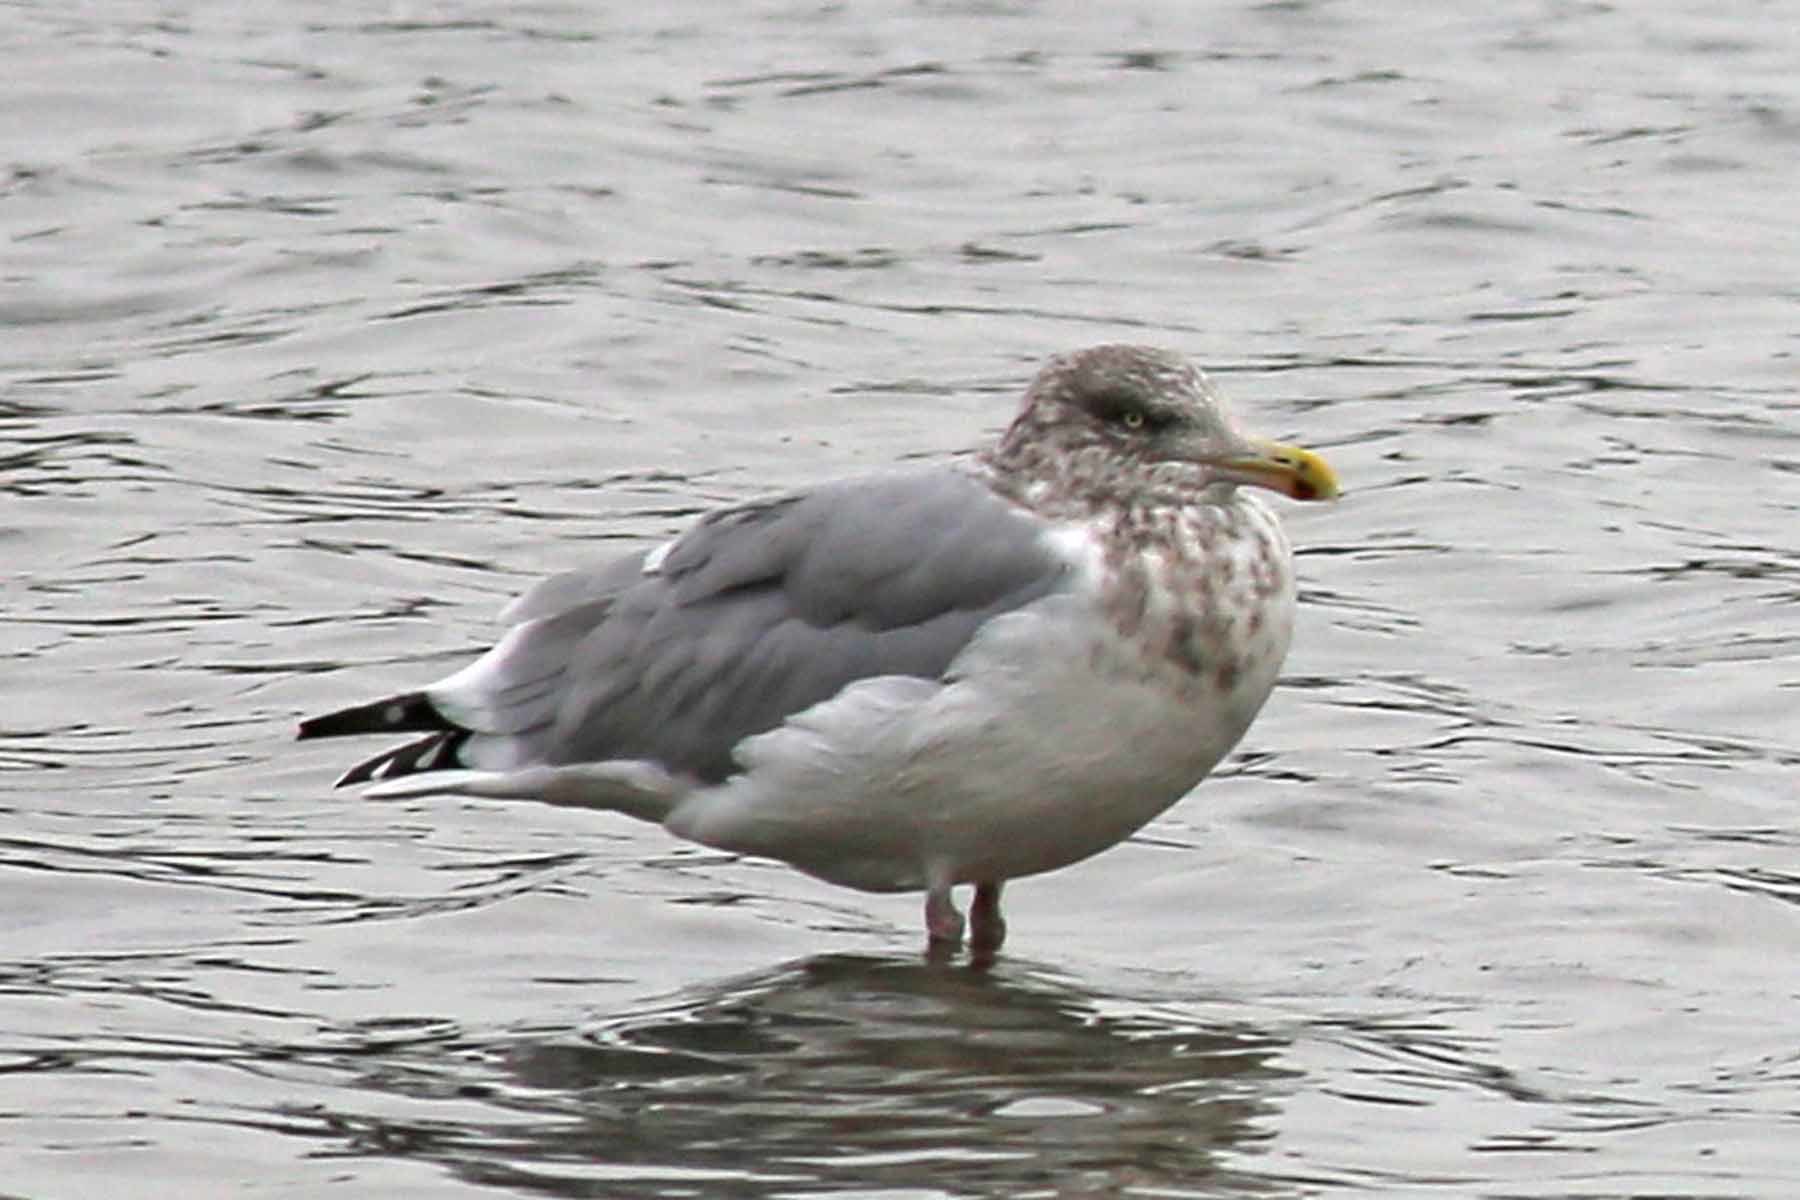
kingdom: Animalia
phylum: Chordata
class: Aves
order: Charadriiformes
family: Laridae
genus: Larus
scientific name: Larus argentatus
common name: Herring gull
